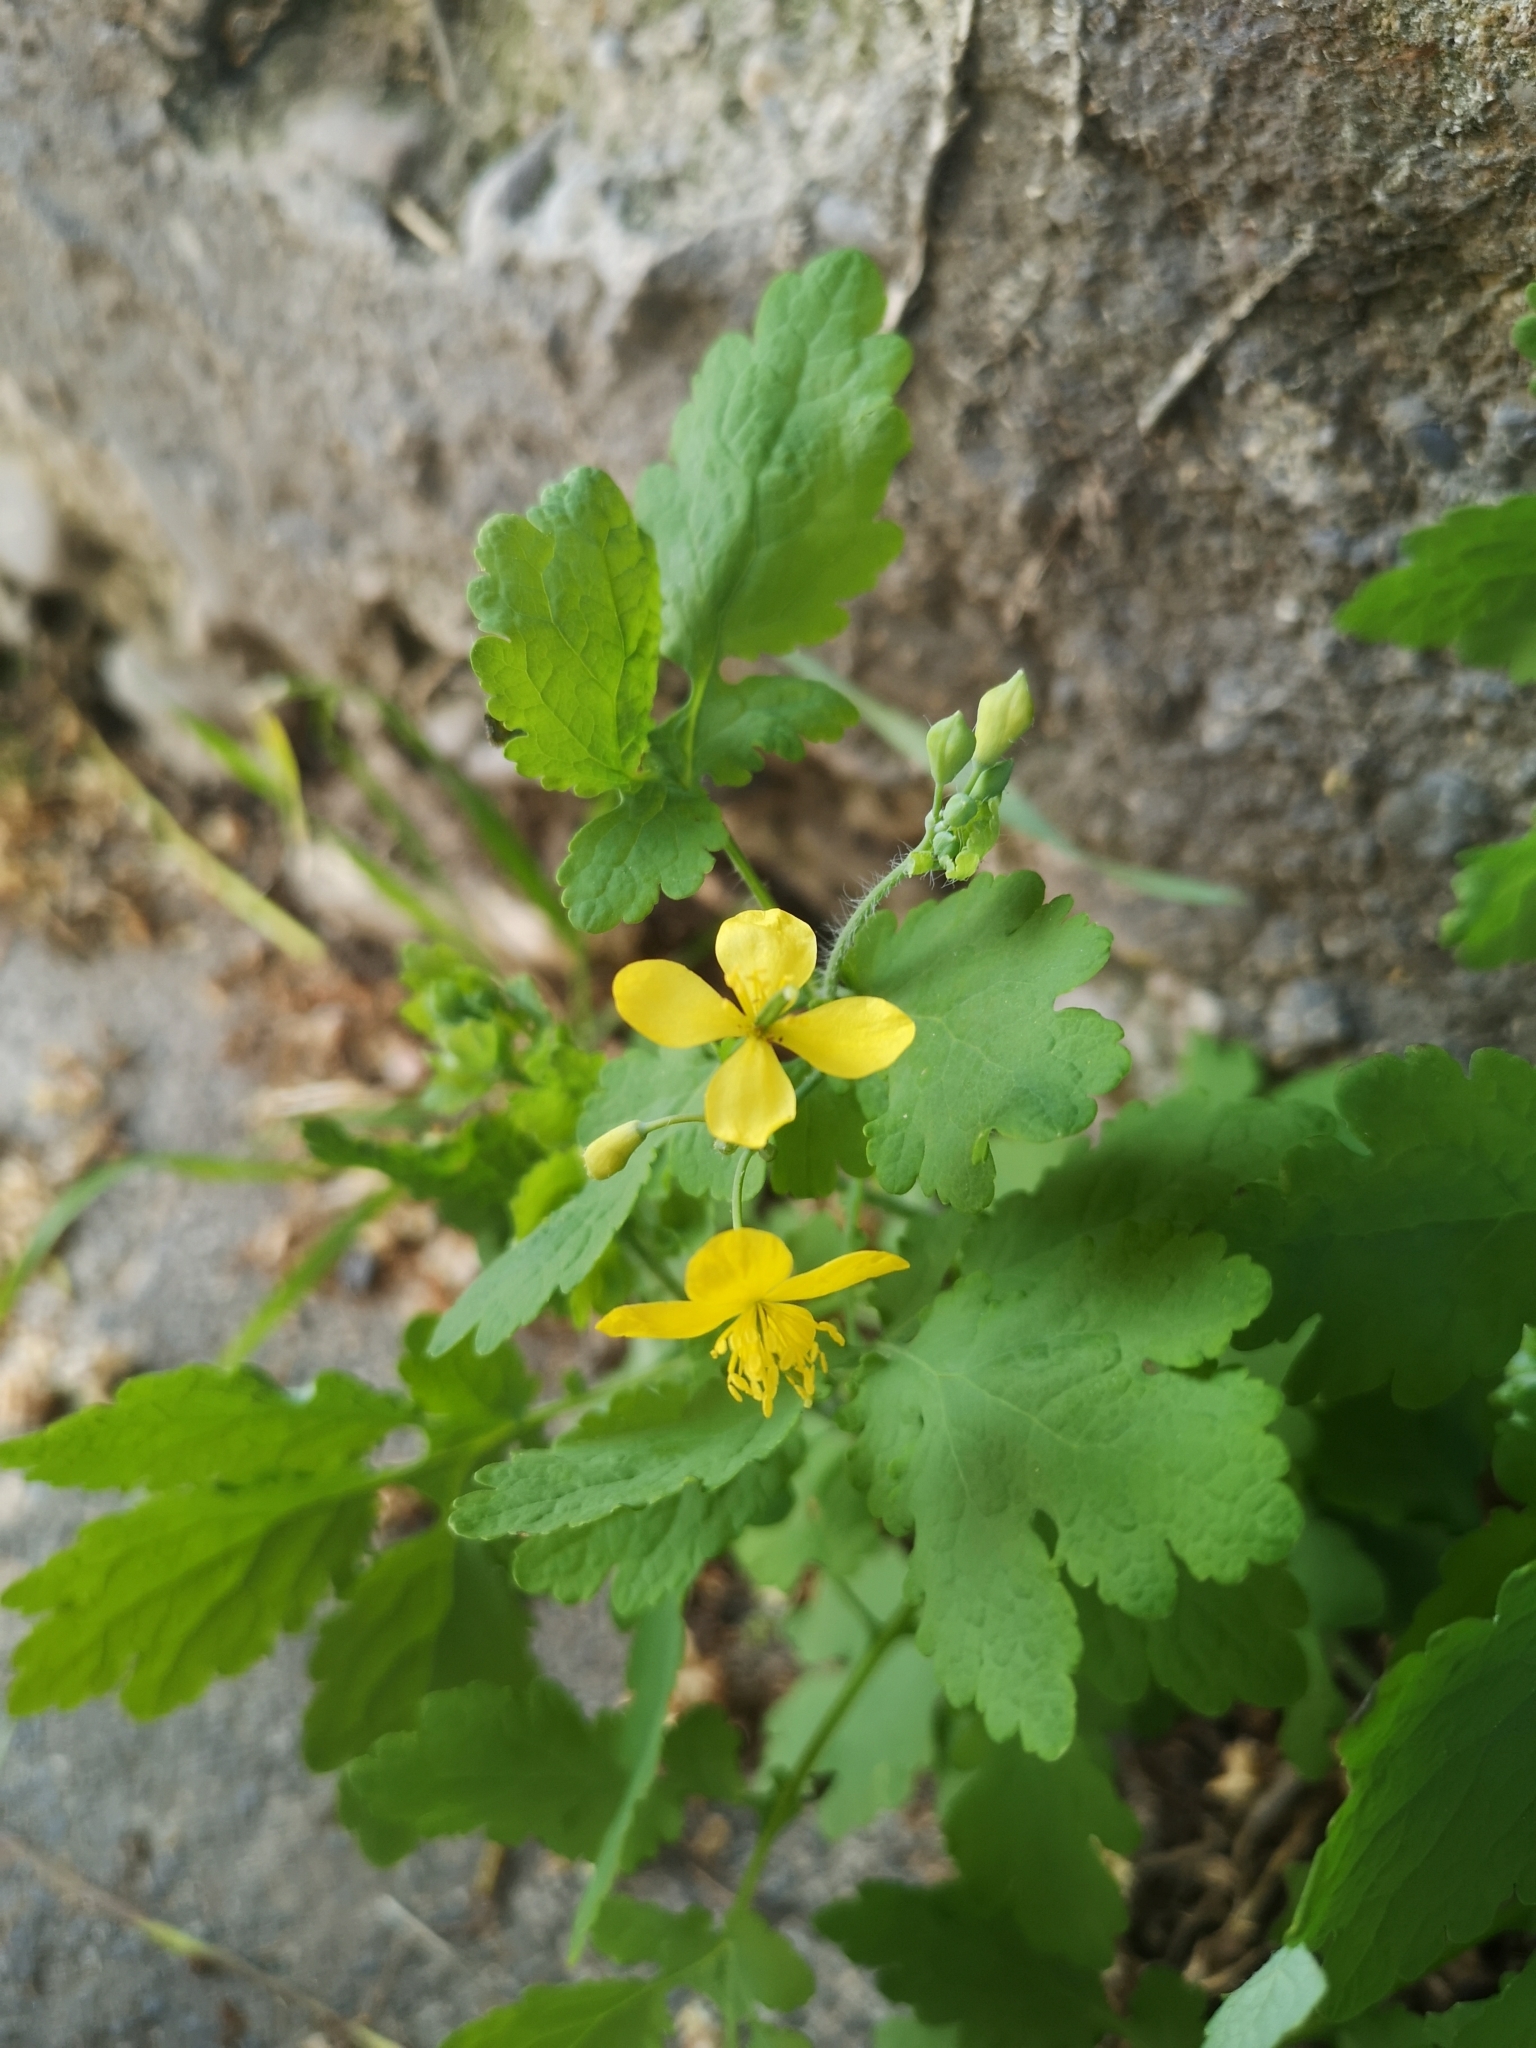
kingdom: Plantae
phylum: Tracheophyta
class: Magnoliopsida
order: Ranunculales
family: Papaveraceae
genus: Chelidonium
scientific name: Chelidonium majus
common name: Greater celandine
